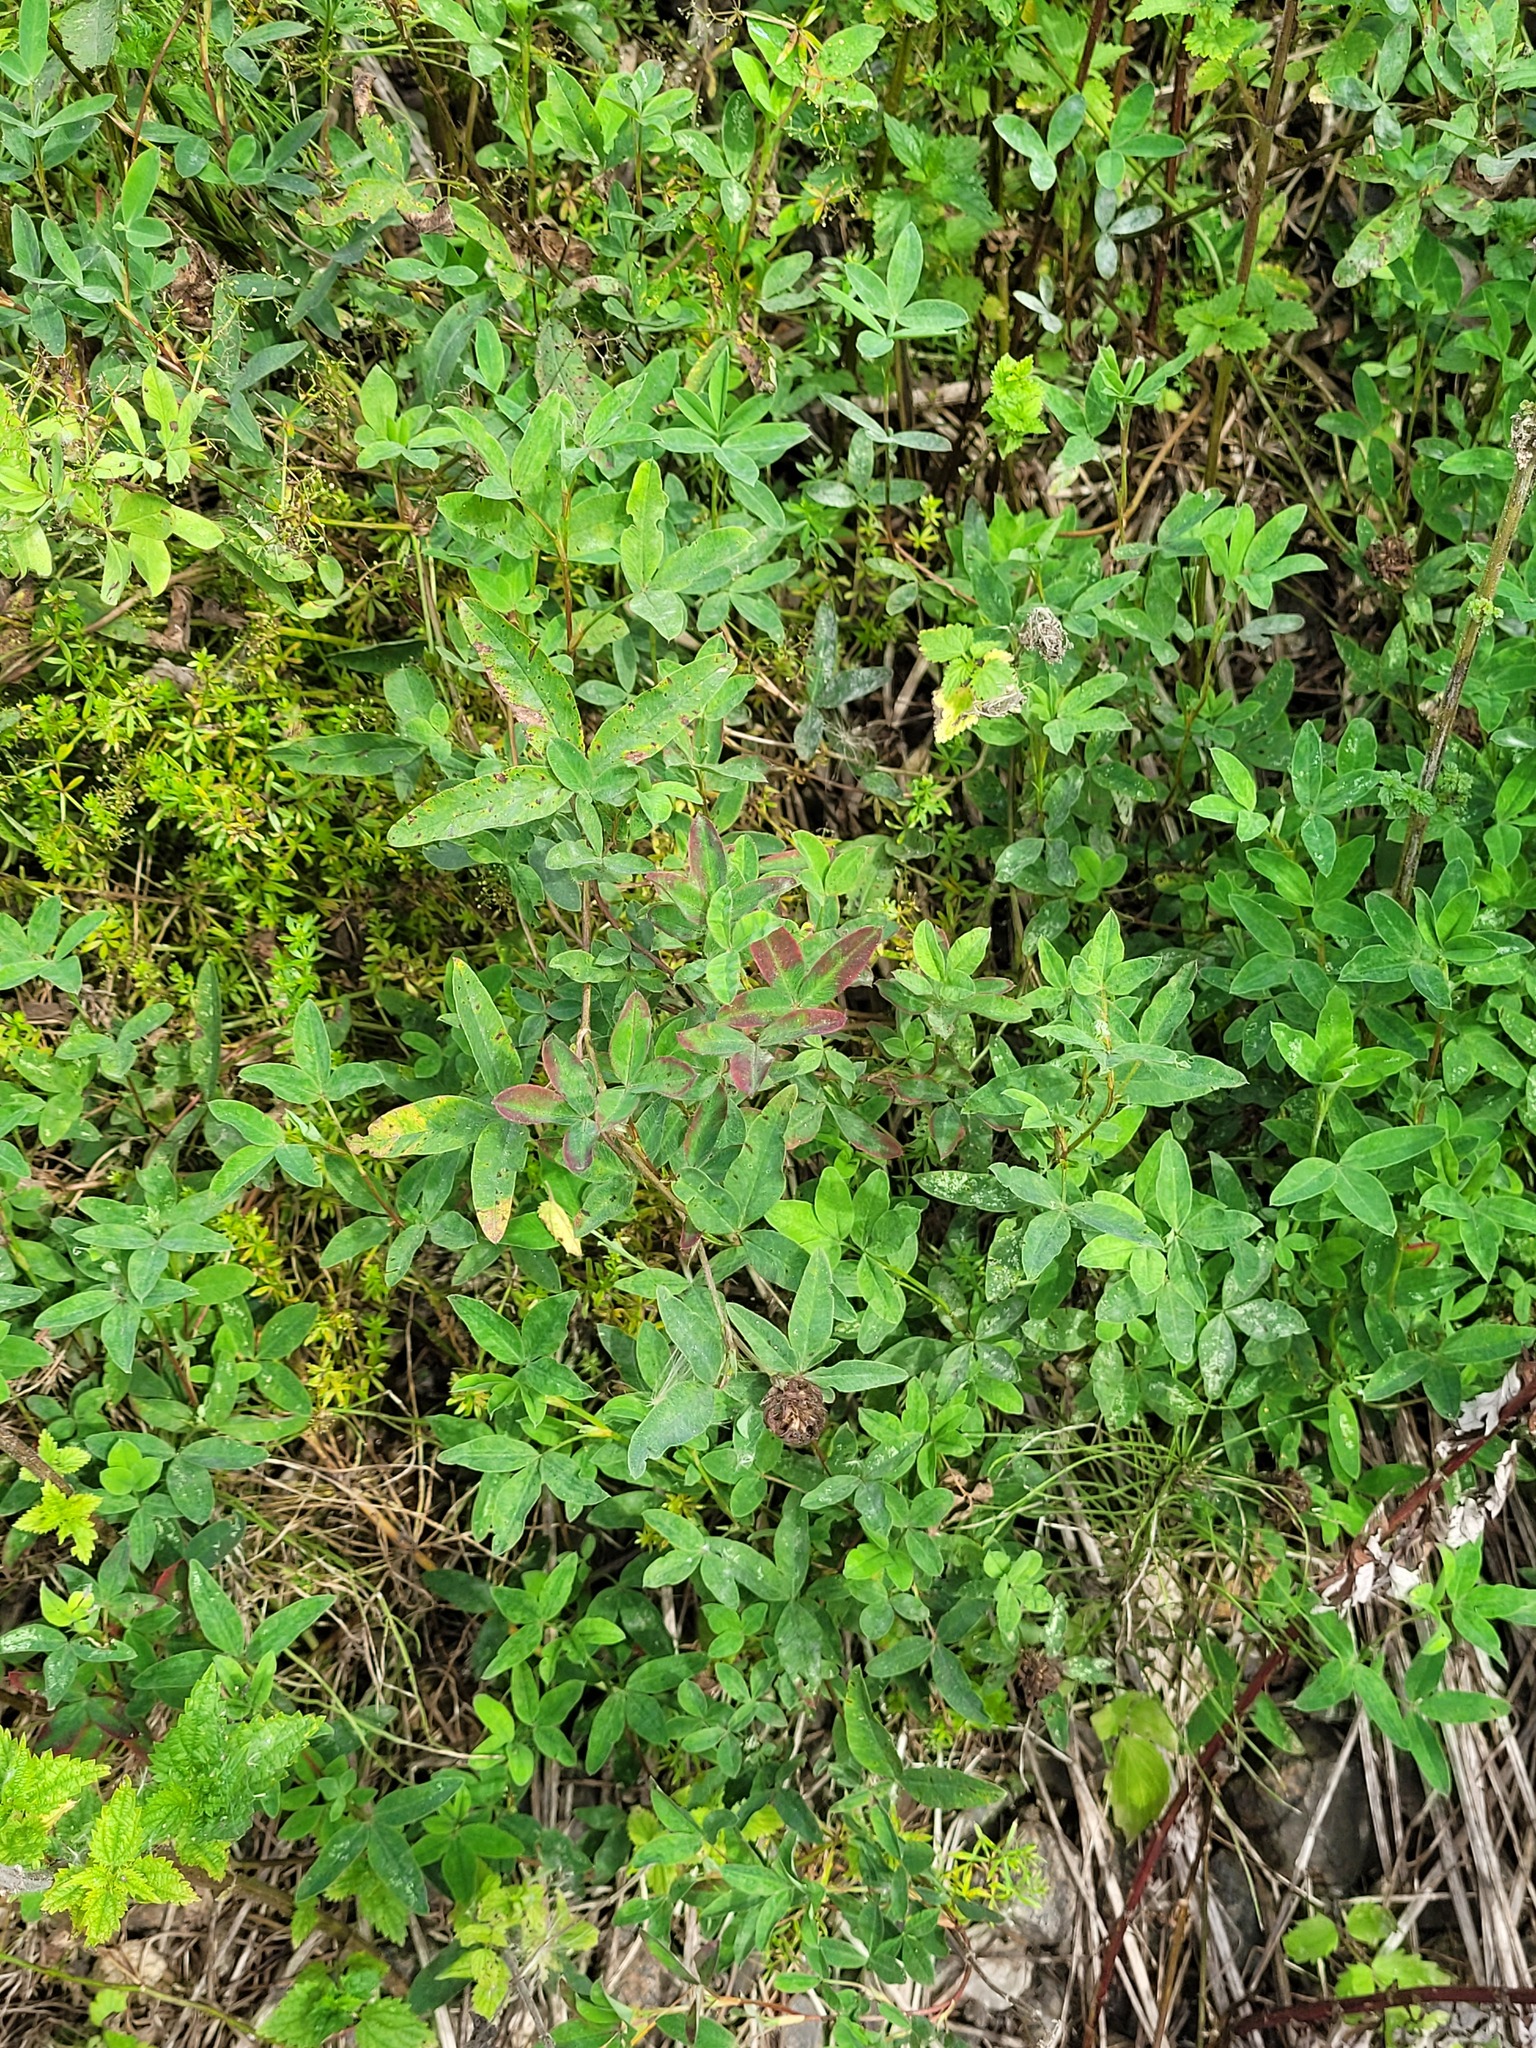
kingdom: Plantae
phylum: Tracheophyta
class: Magnoliopsida
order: Fabales
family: Fabaceae
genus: Trifolium
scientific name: Trifolium medium
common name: Zigzag clover
